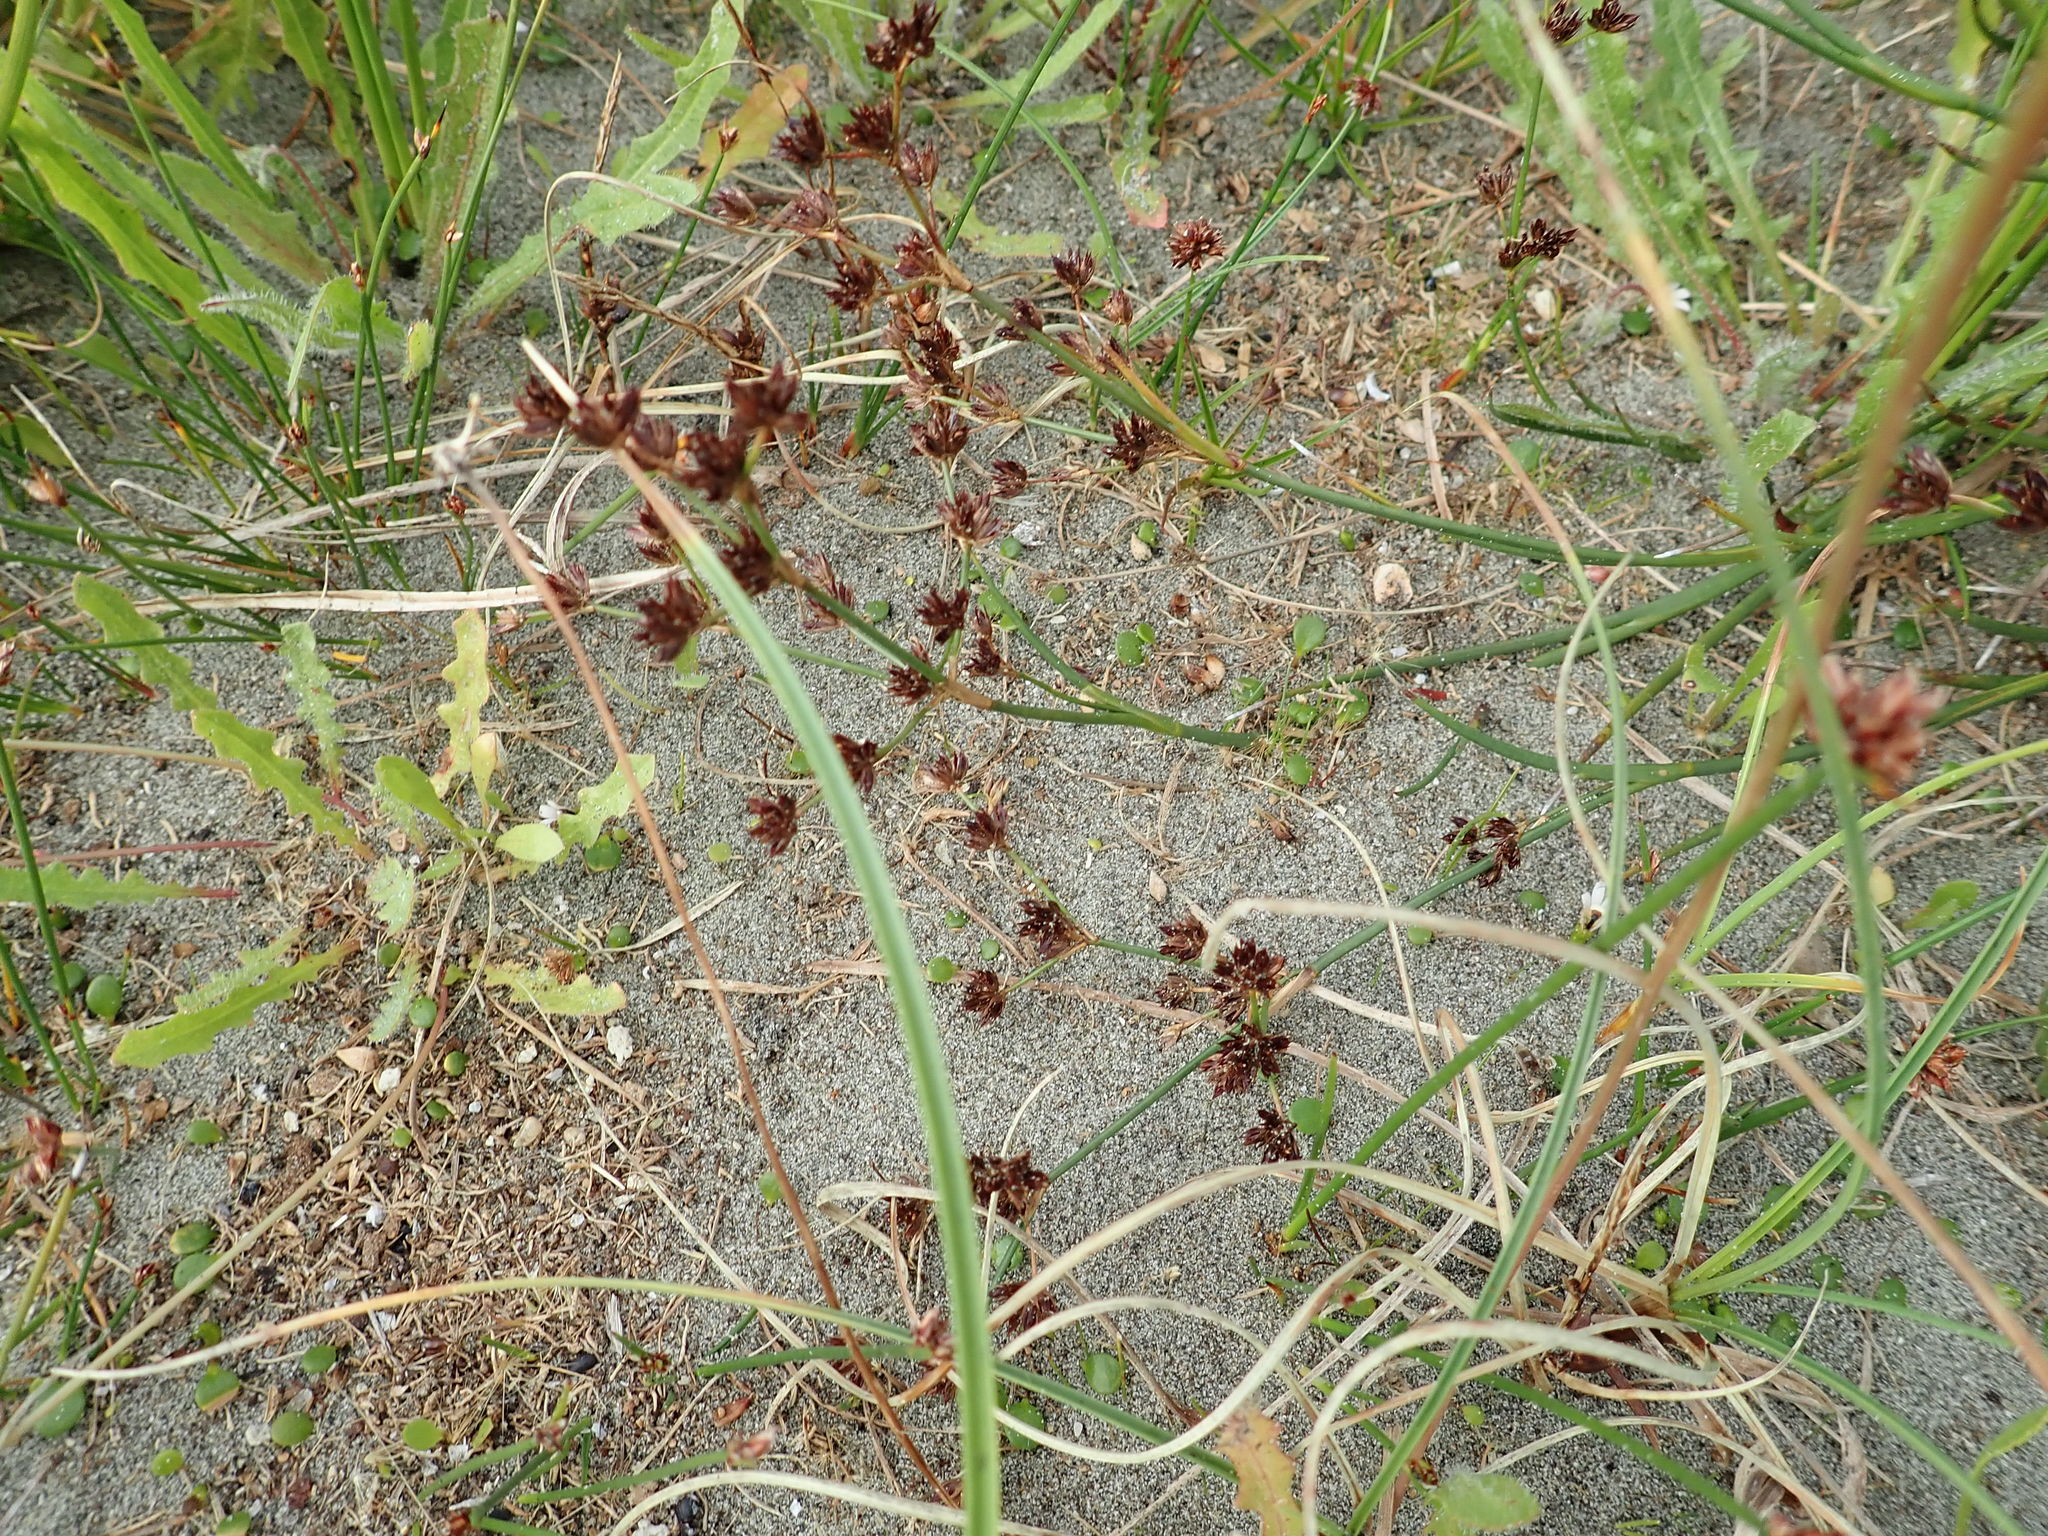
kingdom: Plantae
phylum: Tracheophyta
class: Liliopsida
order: Poales
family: Juncaceae
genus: Juncus
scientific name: Juncus articulatus
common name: Jointed rush
